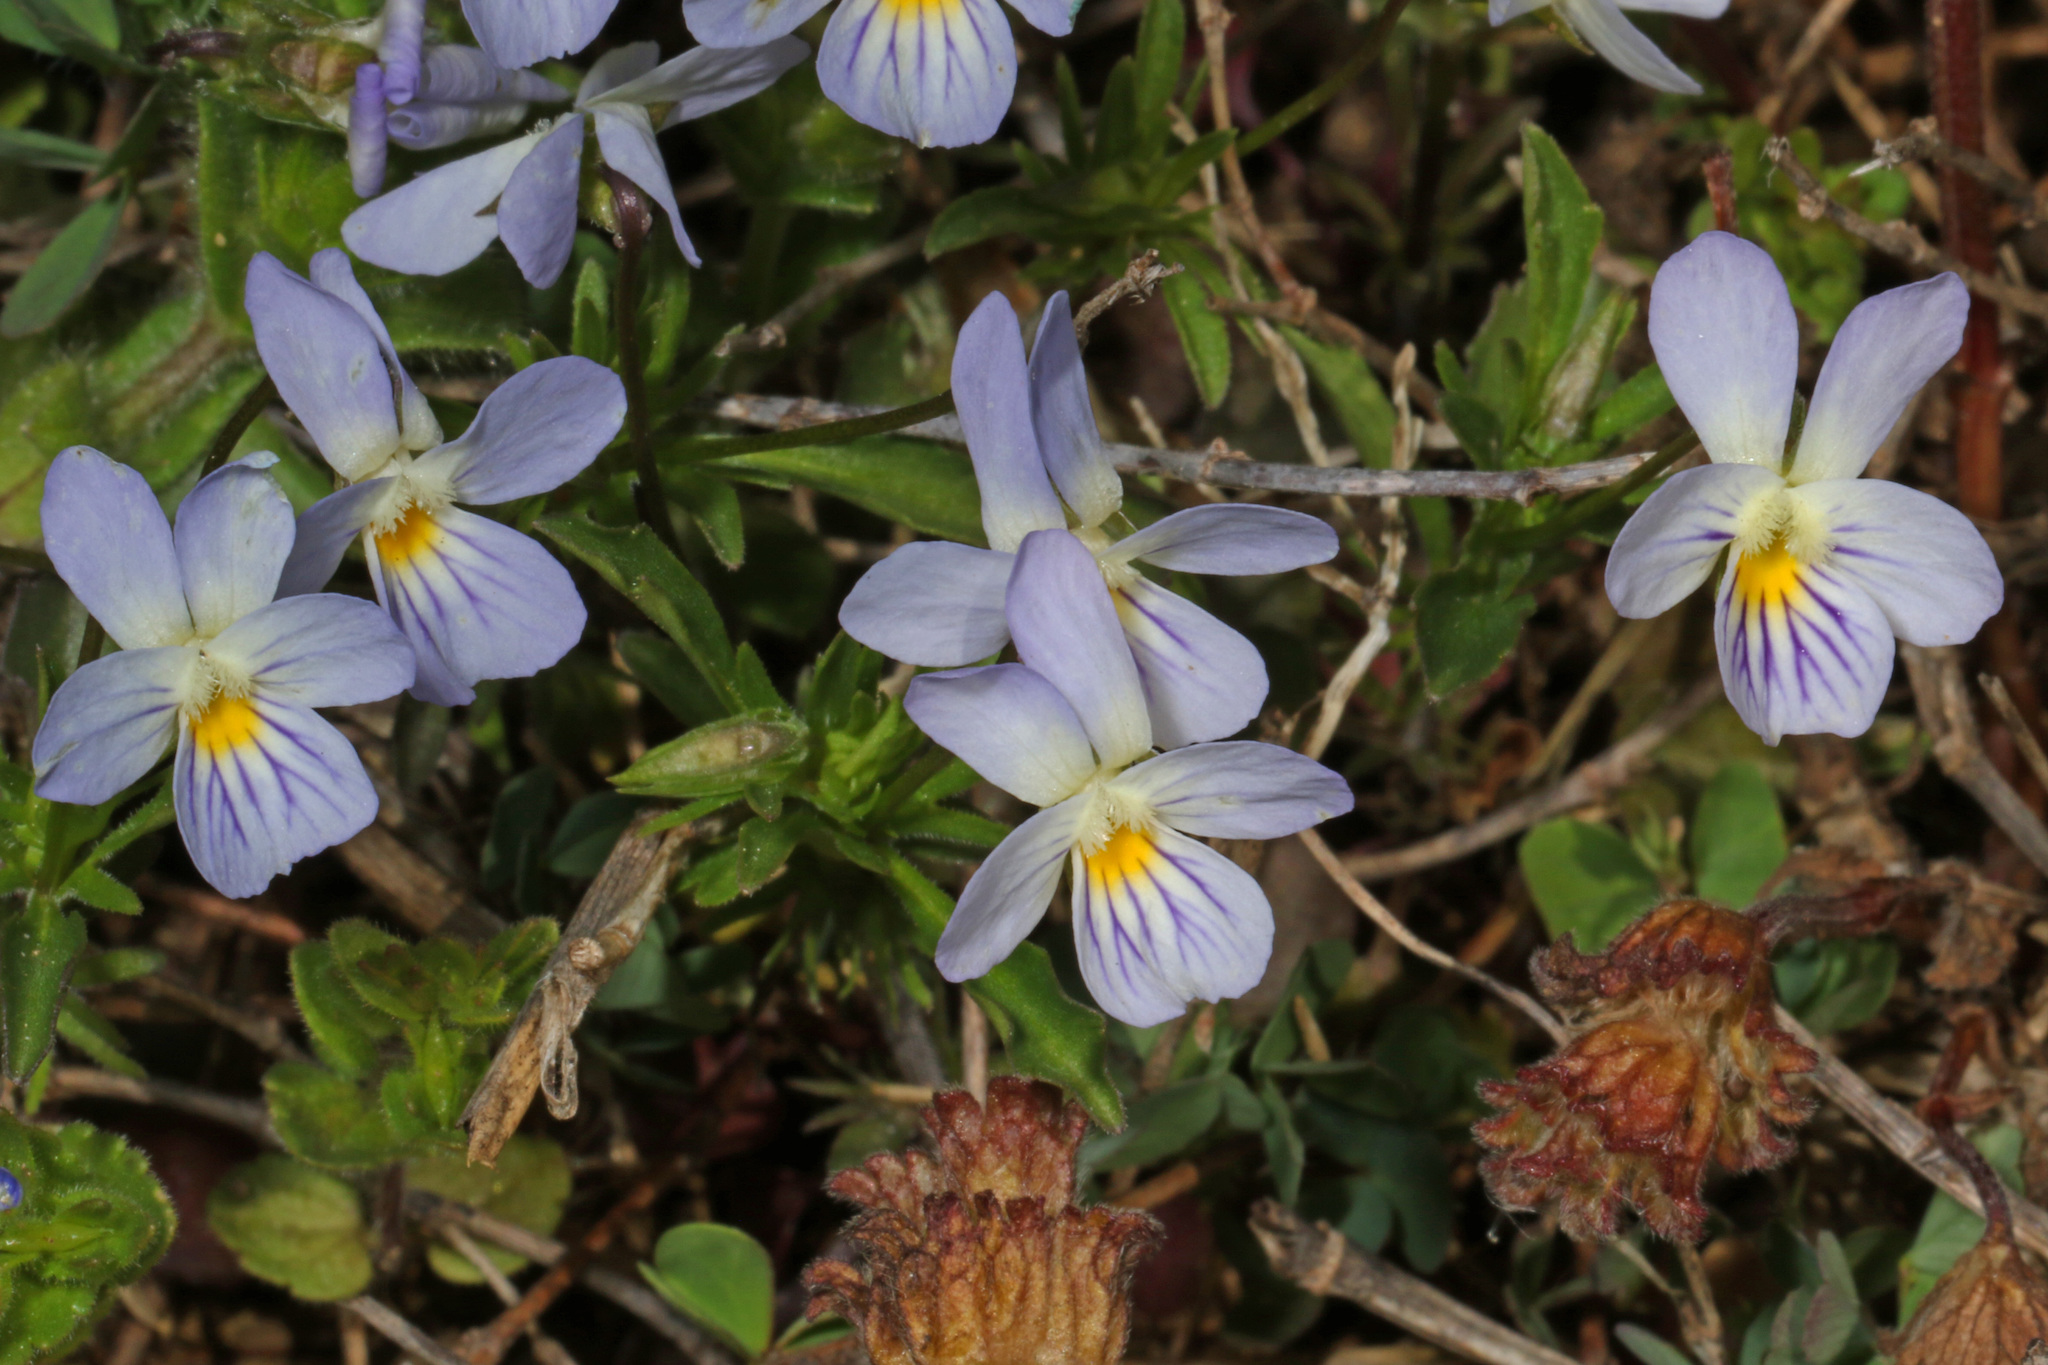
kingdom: Plantae
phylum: Tracheophyta
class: Magnoliopsida
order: Malpighiales
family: Violaceae
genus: Viola
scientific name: Viola rafinesquei
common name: American field pansy
